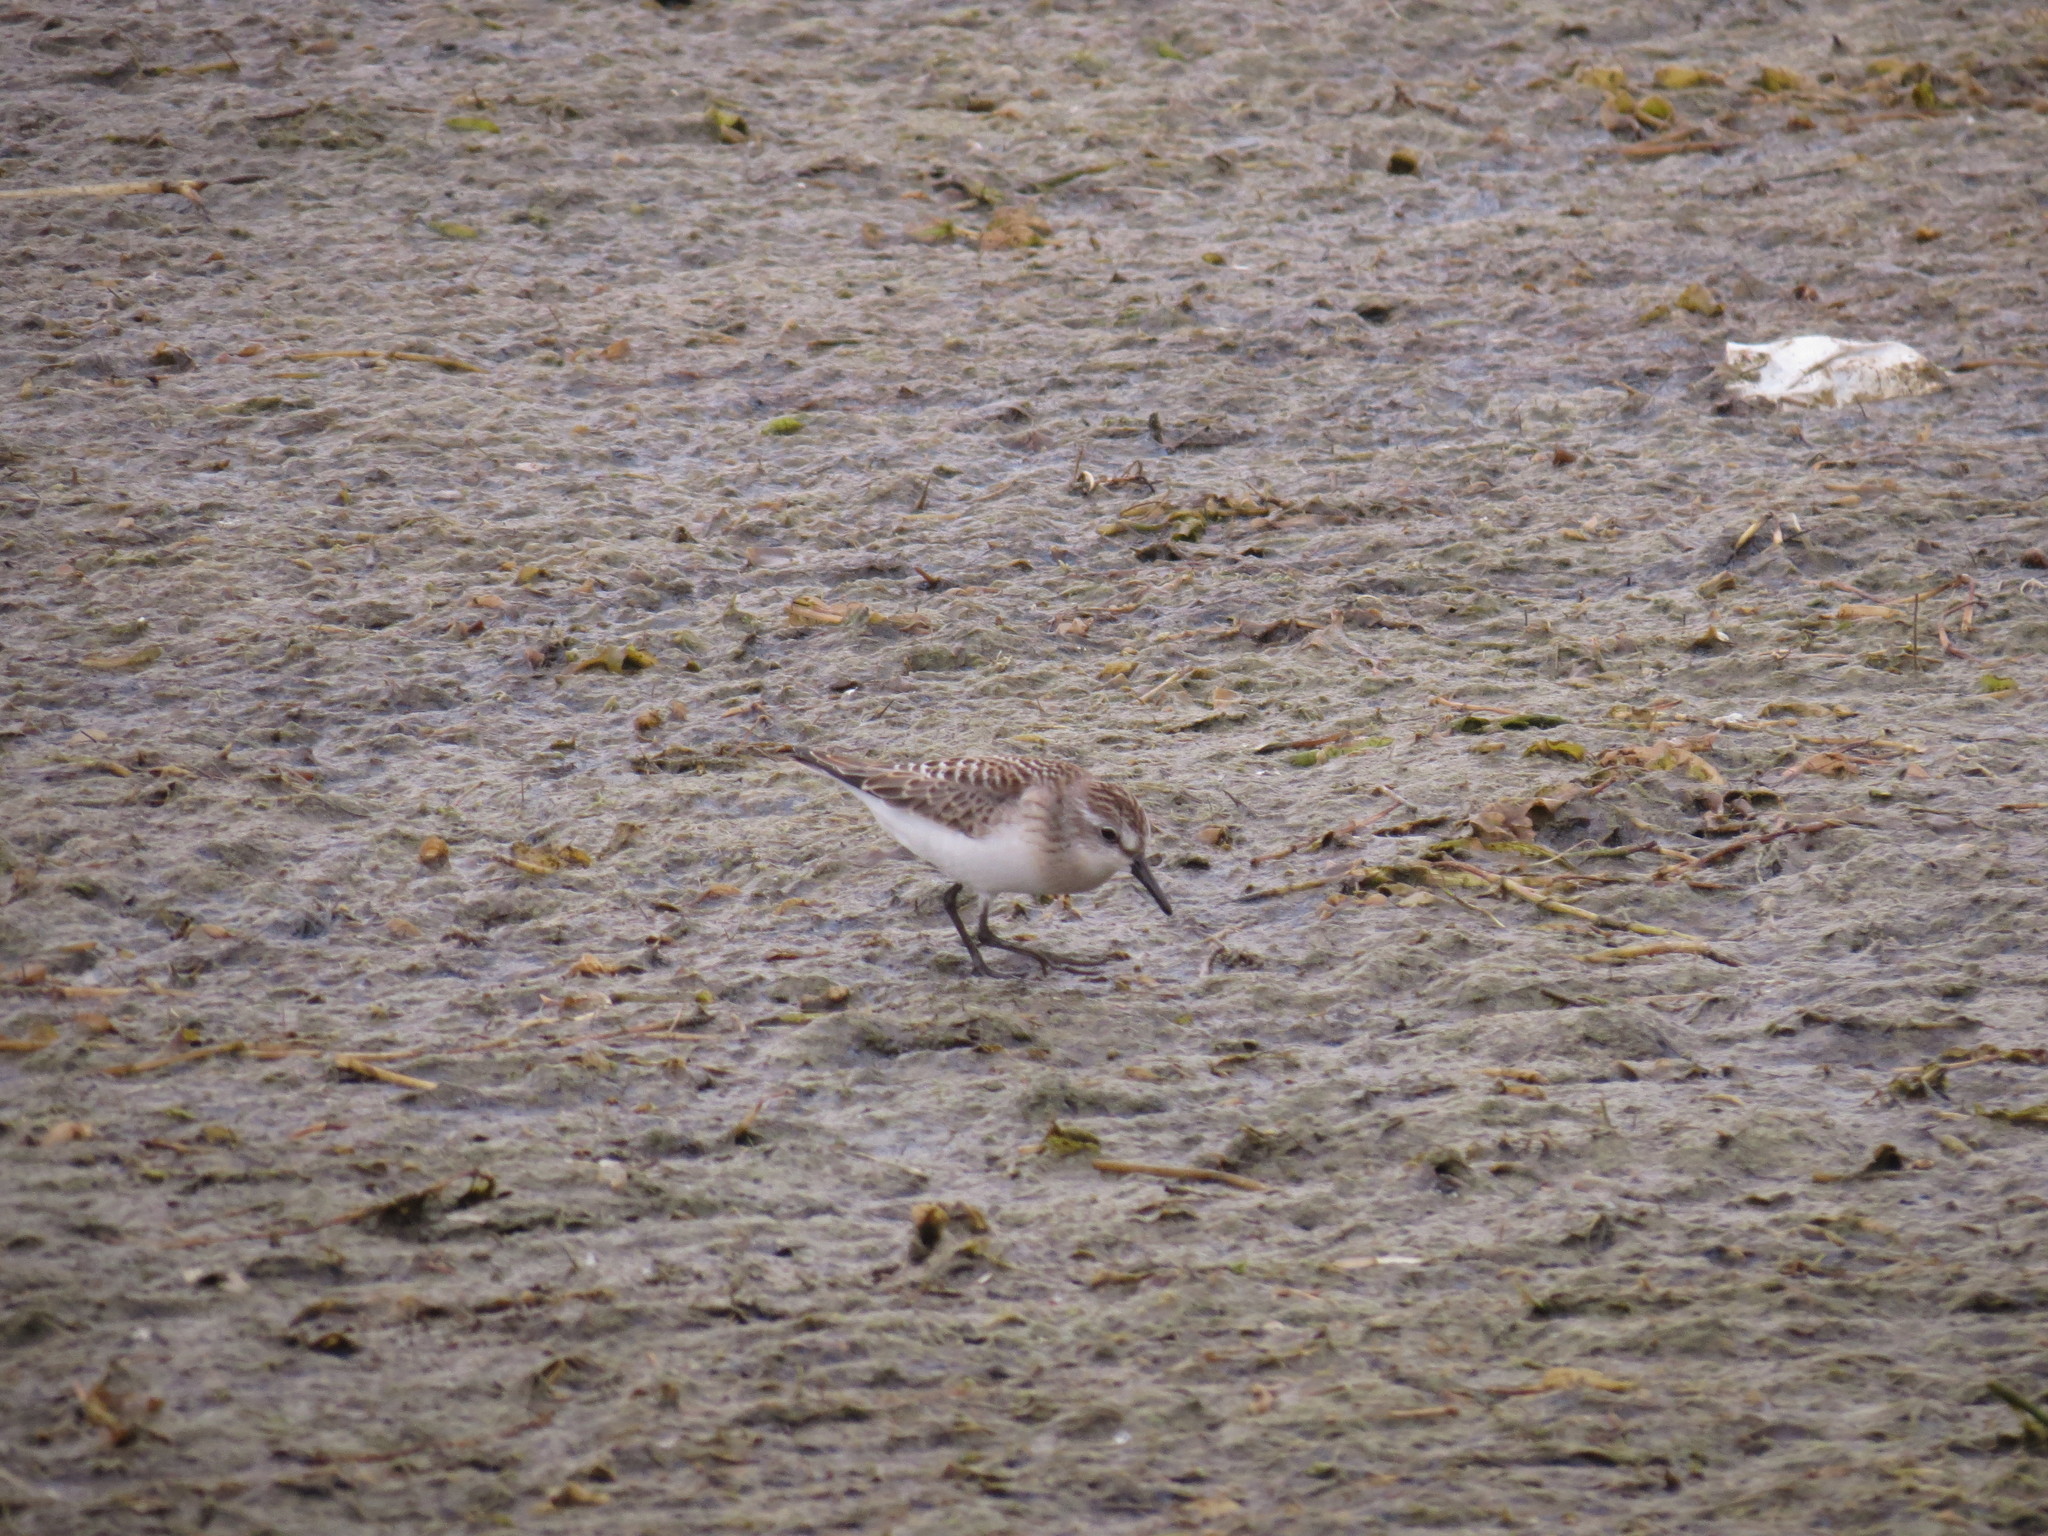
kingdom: Animalia
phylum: Chordata
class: Aves
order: Charadriiformes
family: Scolopacidae
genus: Calidris
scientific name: Calidris pusilla
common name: Semipalmated sandpiper
